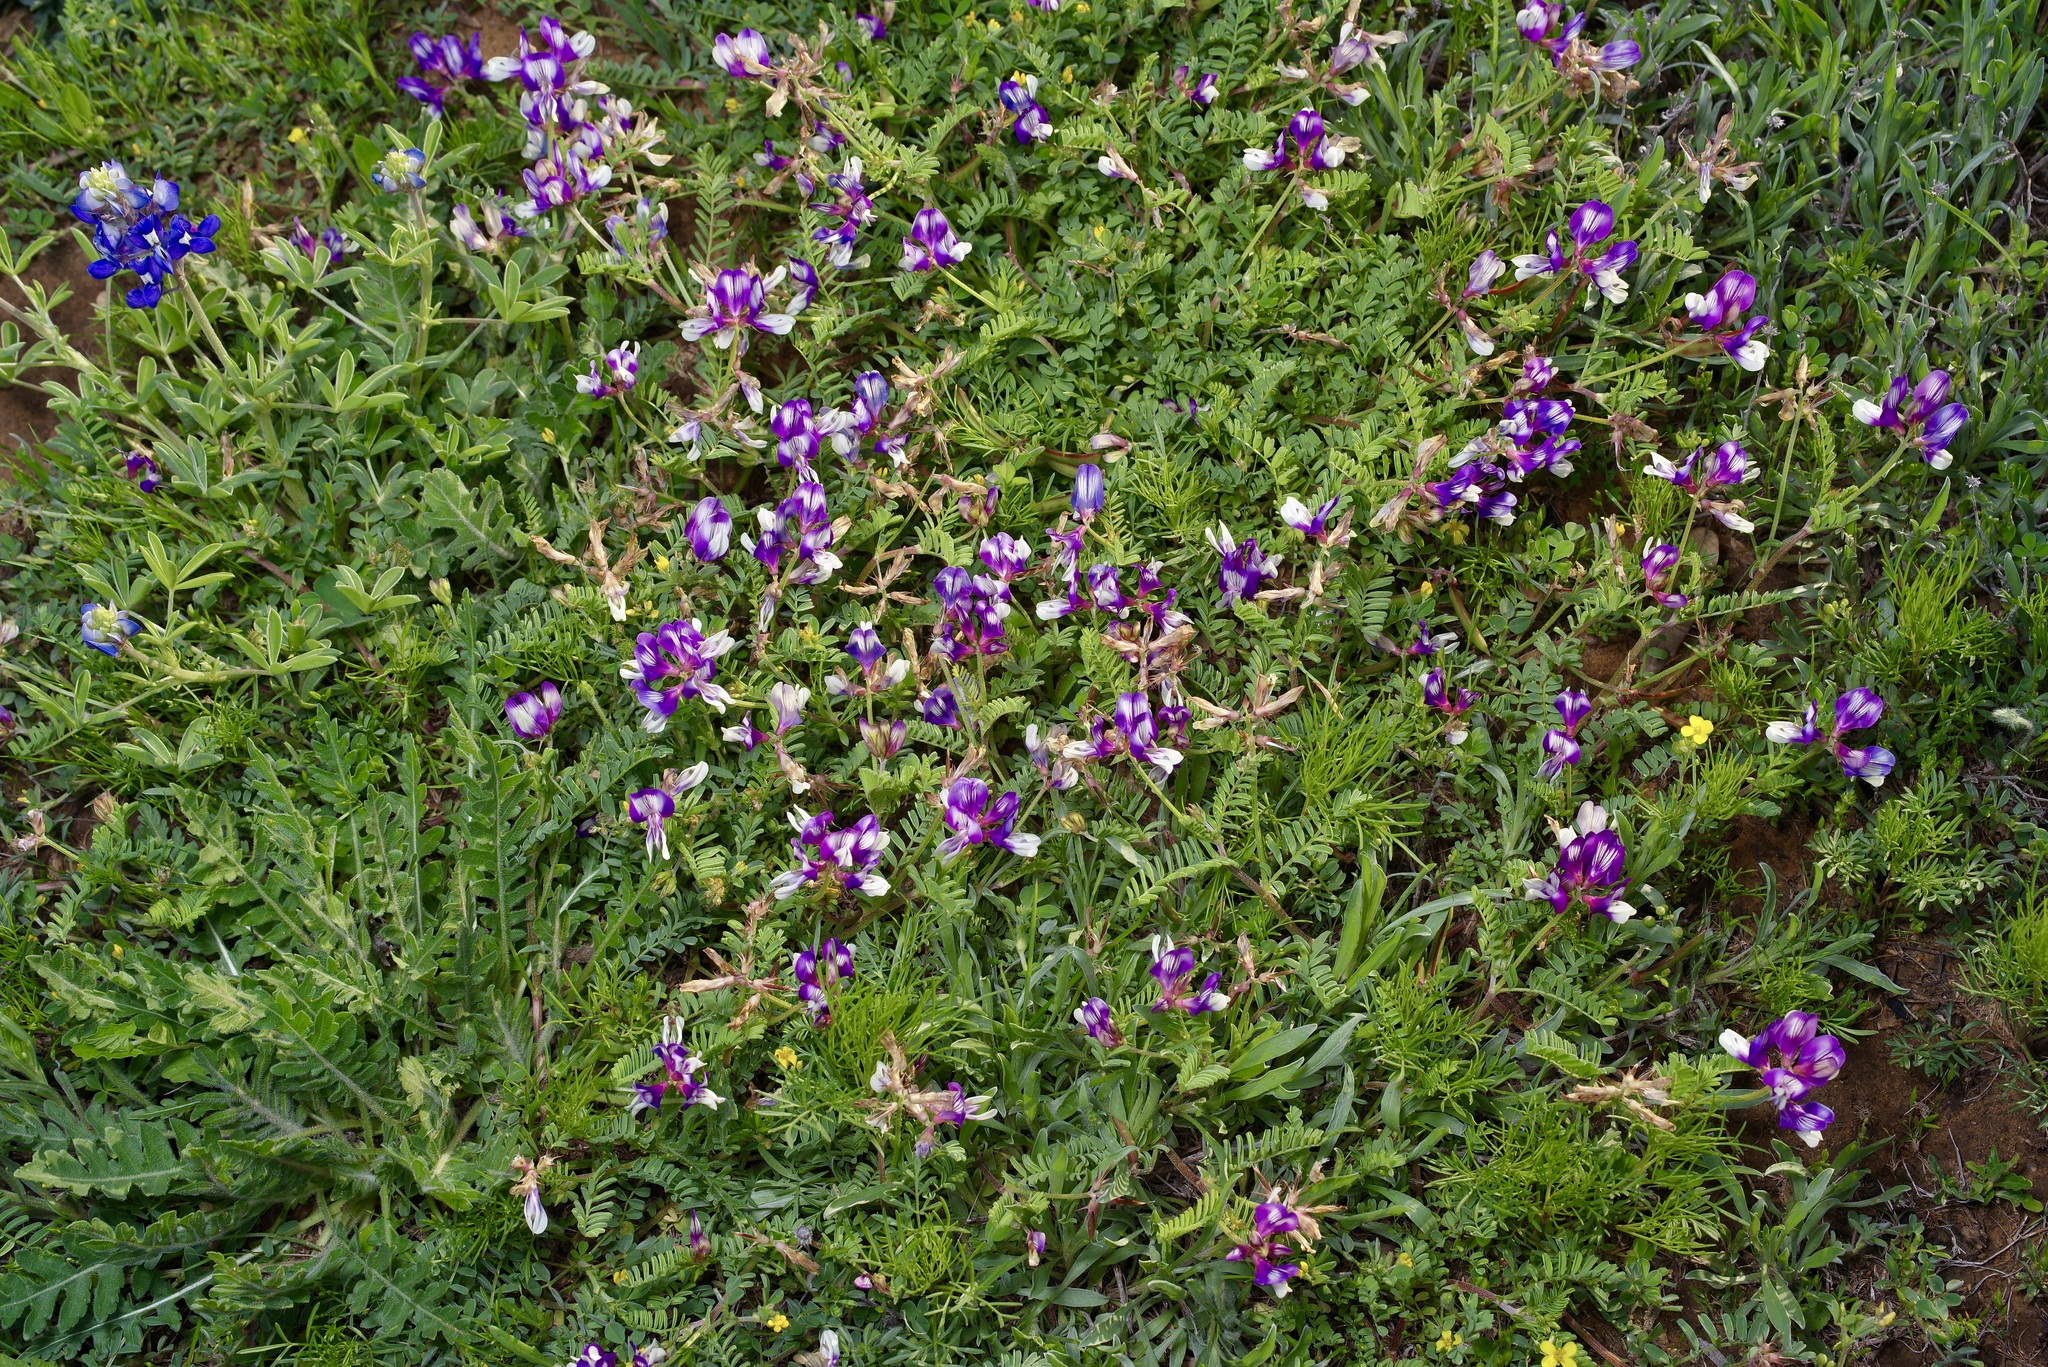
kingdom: Plantae
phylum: Tracheophyta
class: Magnoliopsida
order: Fabales
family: Fabaceae
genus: Astragalus
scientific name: Astragalus lindheimeri
